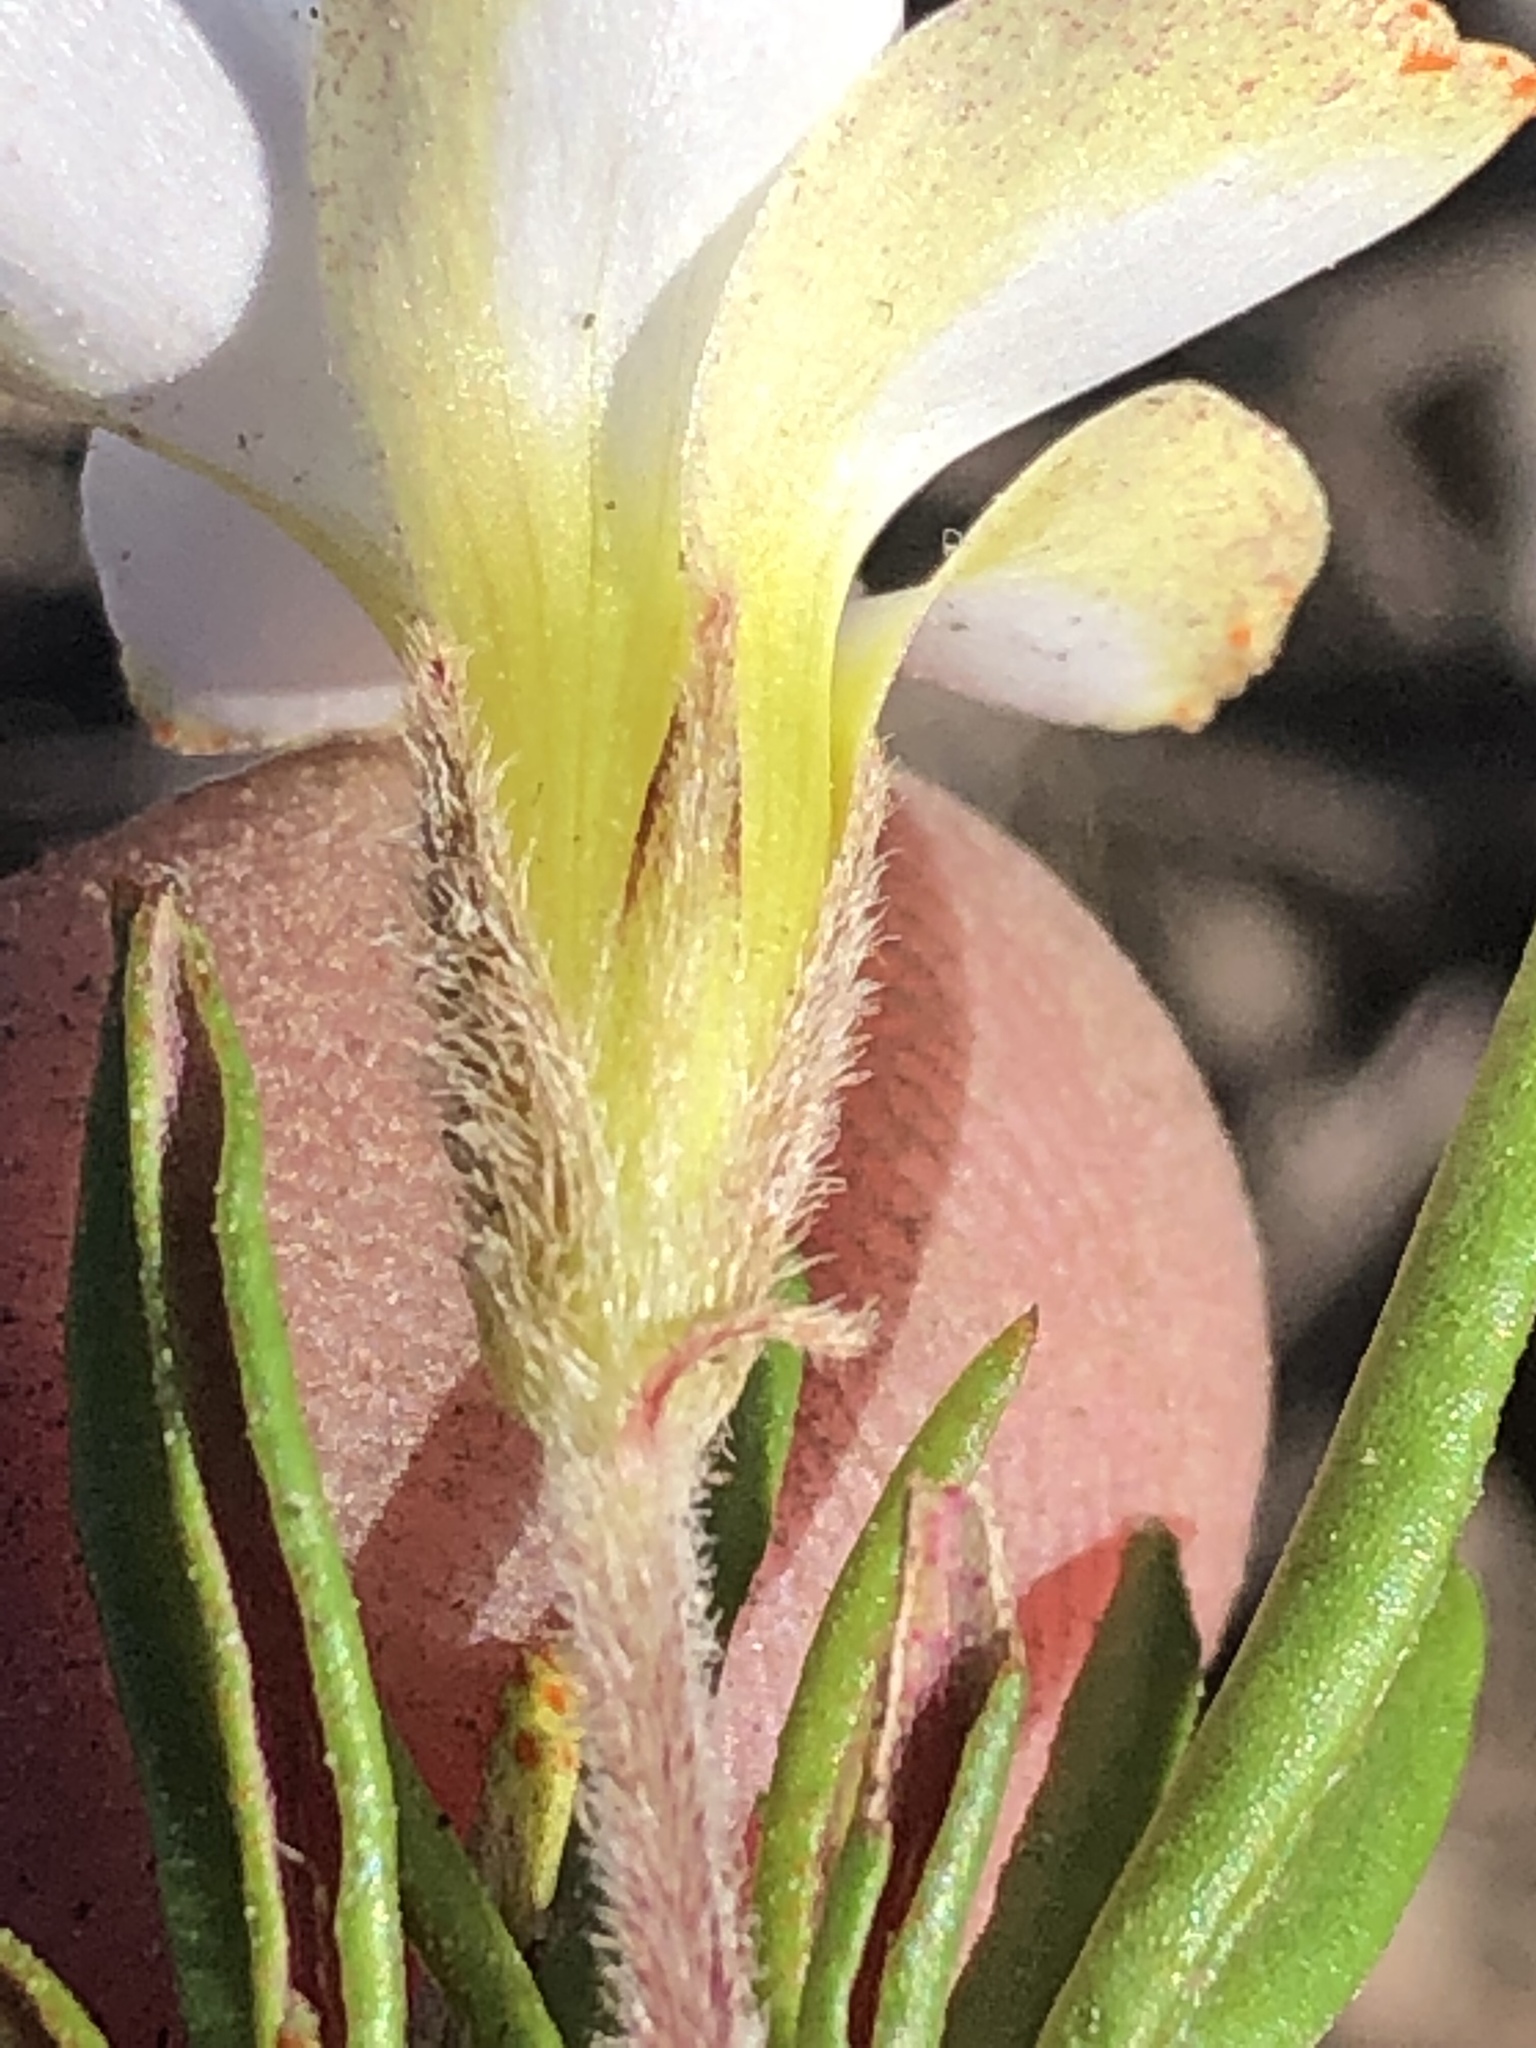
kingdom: Plantae
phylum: Tracheophyta
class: Magnoliopsida
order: Oxalidales
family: Oxalidaceae
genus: Oxalis
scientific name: Oxalis algoensis
